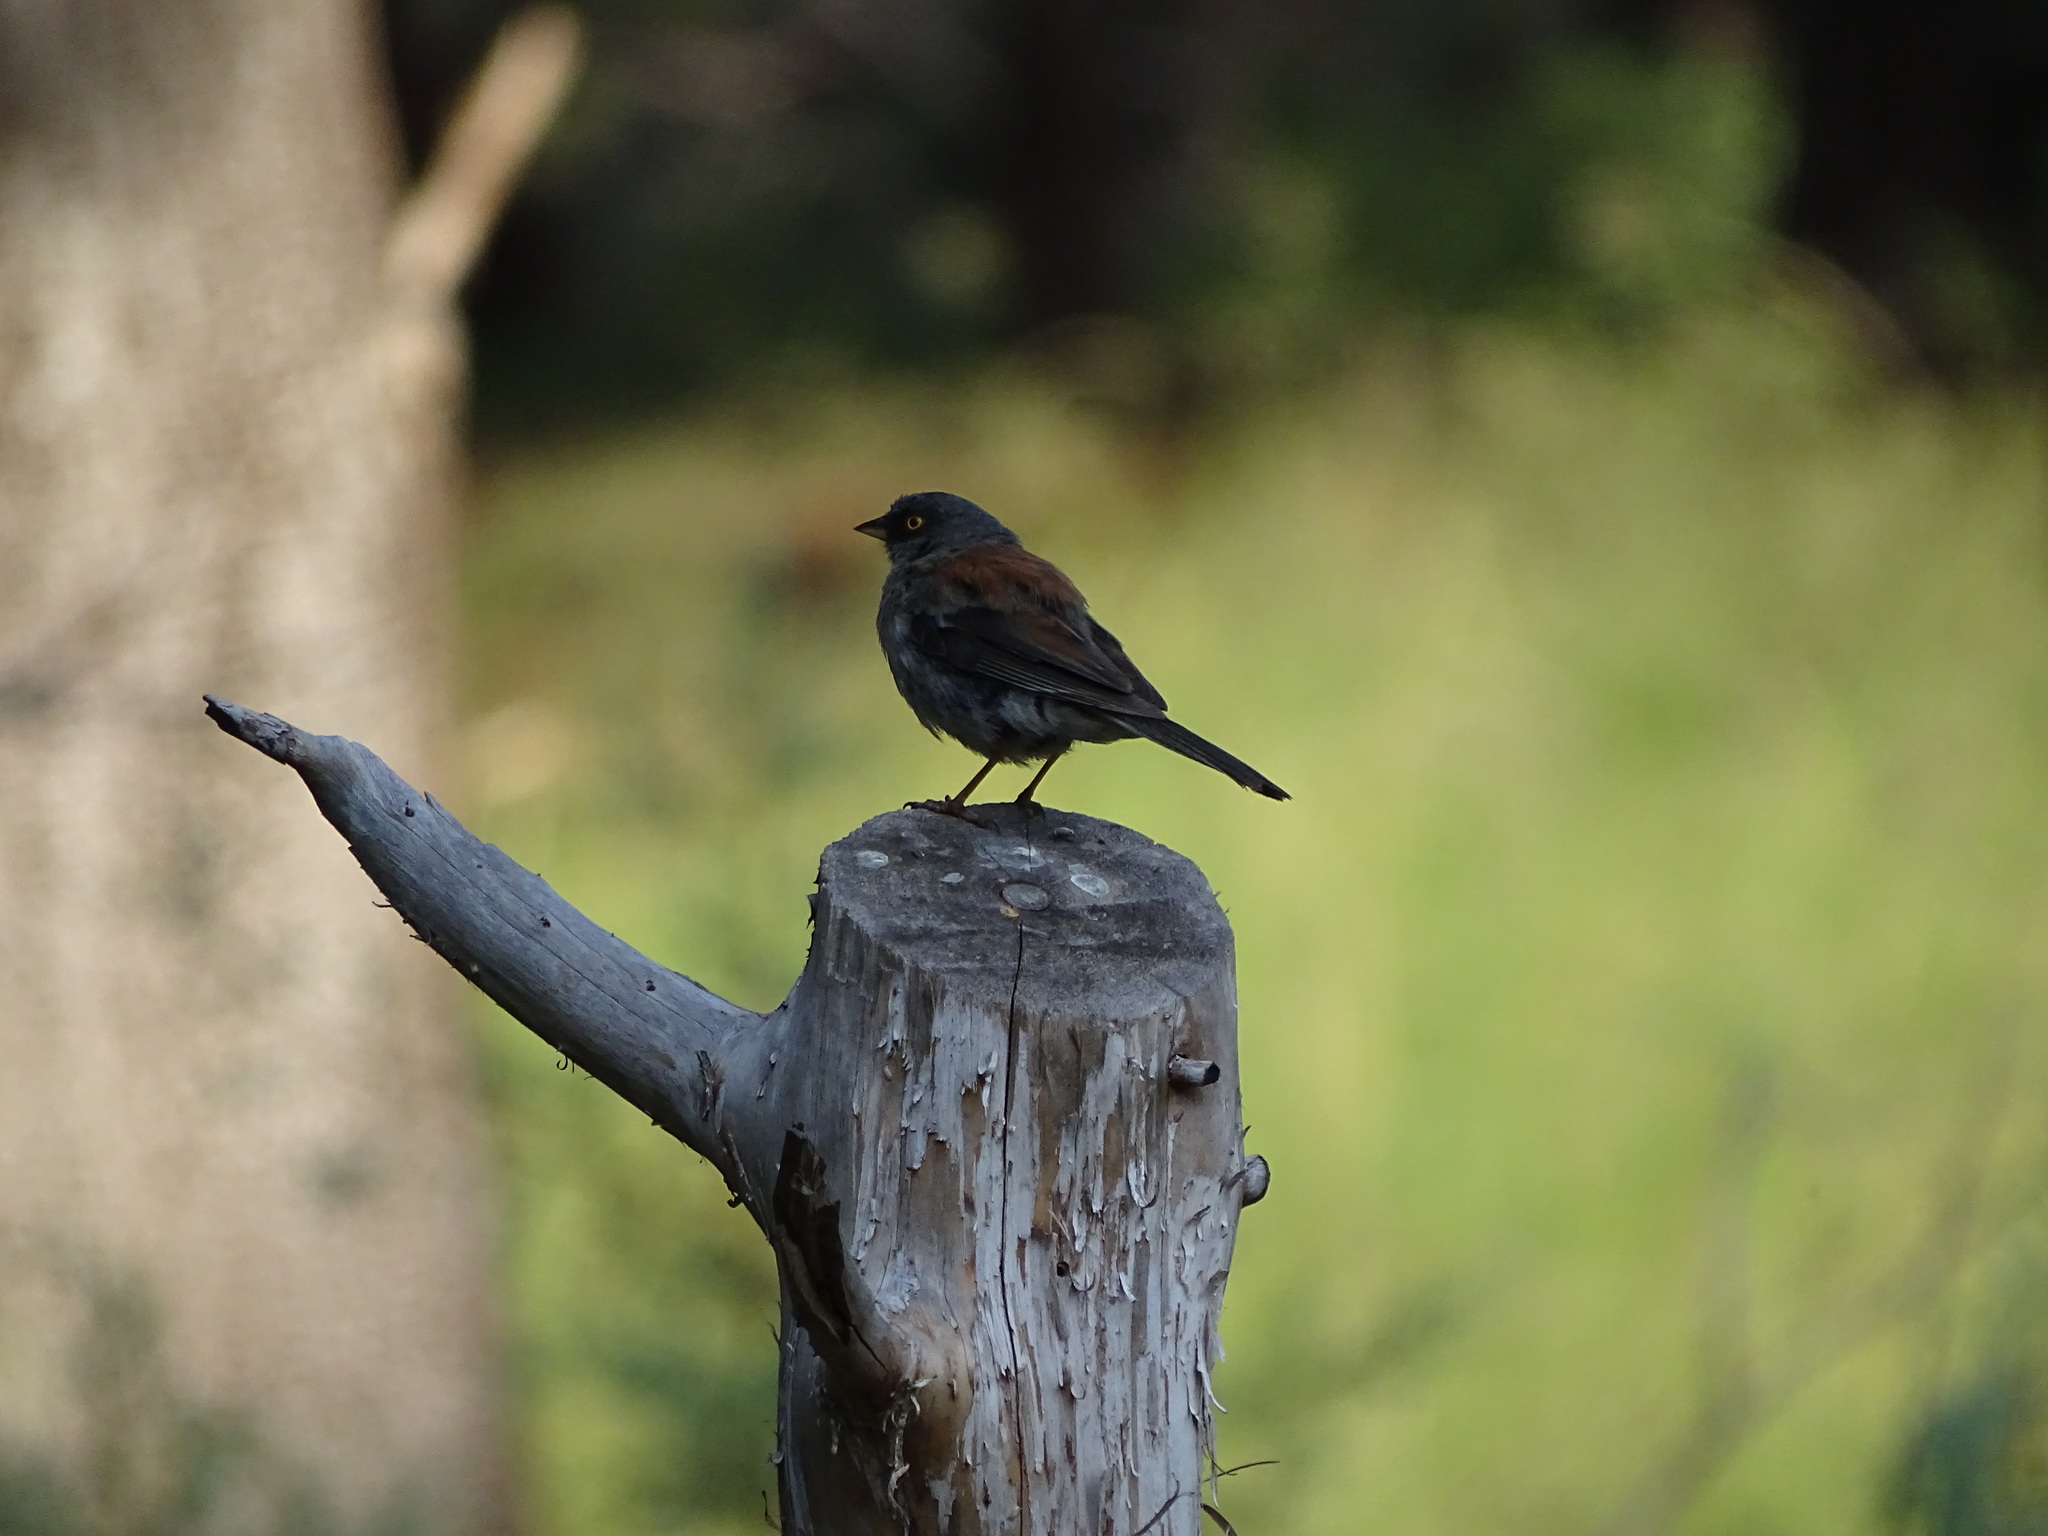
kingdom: Animalia
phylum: Chordata
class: Aves
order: Passeriformes
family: Passerellidae
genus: Junco
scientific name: Junco phaeonotus
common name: Yellow-eyed junco
